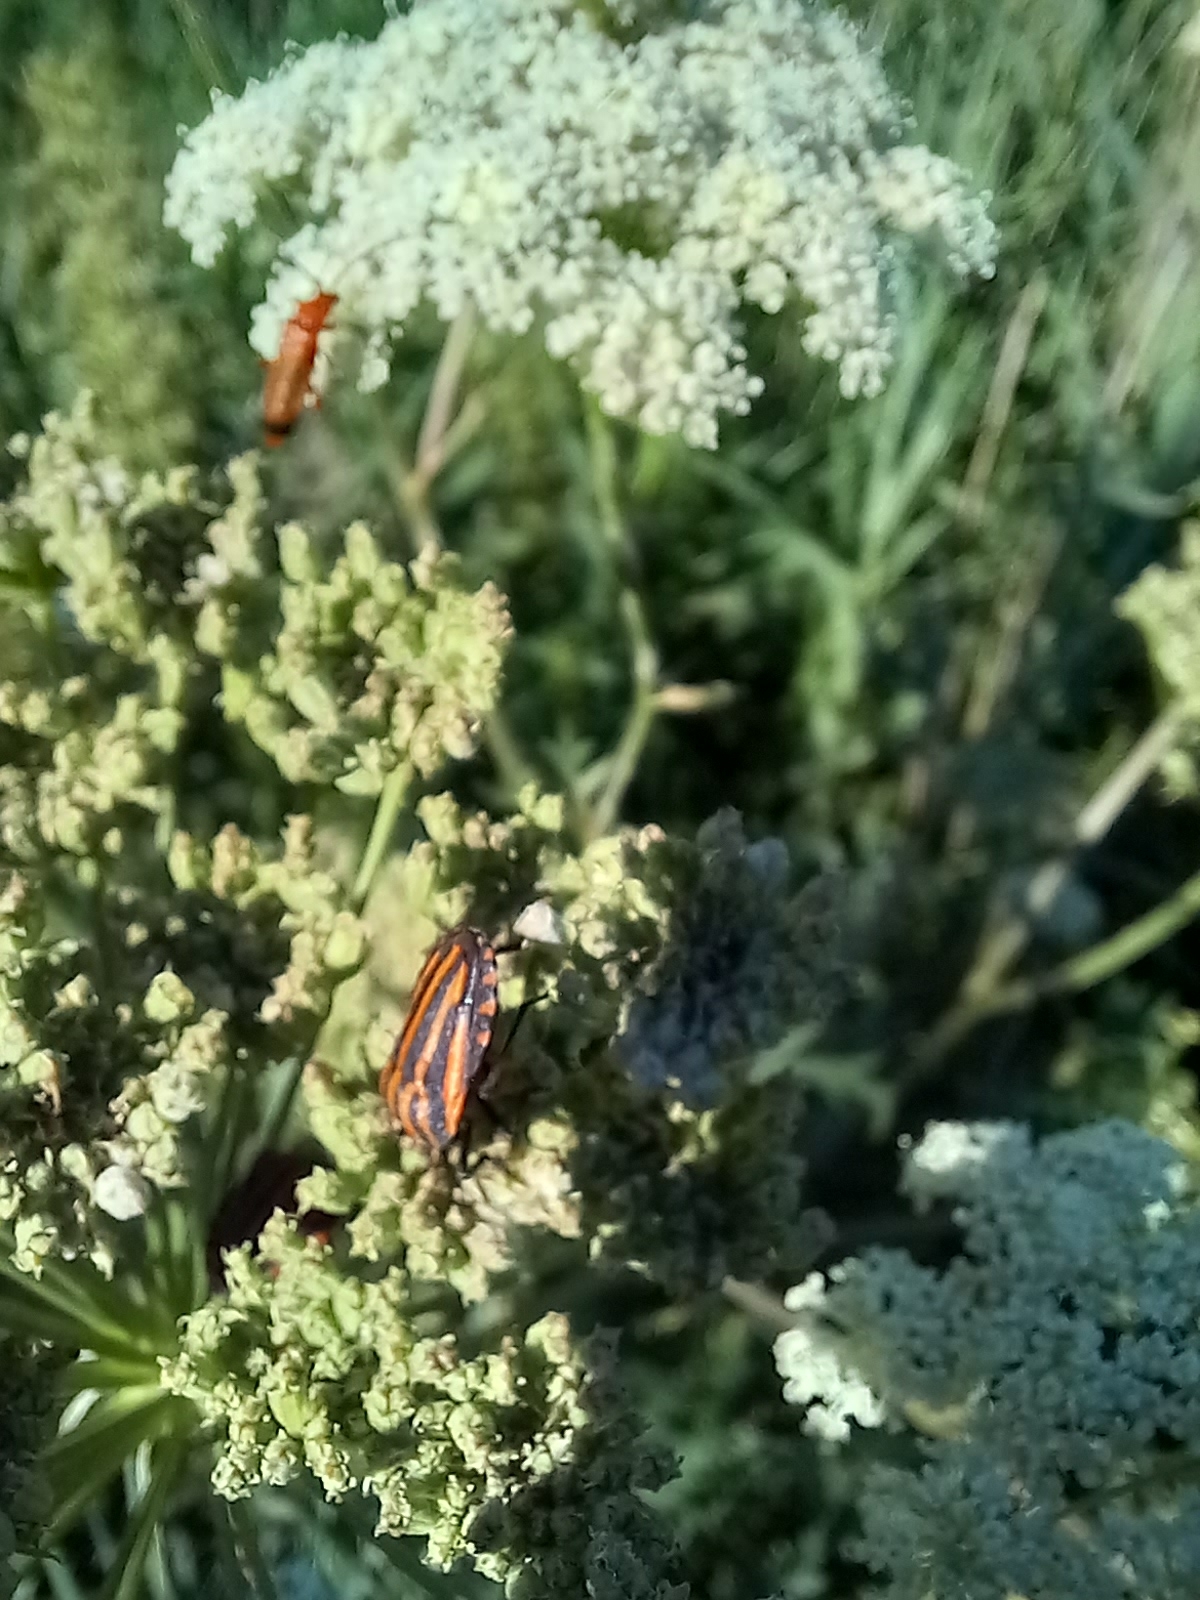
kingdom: Animalia
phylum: Arthropoda
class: Insecta
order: Hemiptera
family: Pentatomidae
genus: Graphosoma
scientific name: Graphosoma italicum
